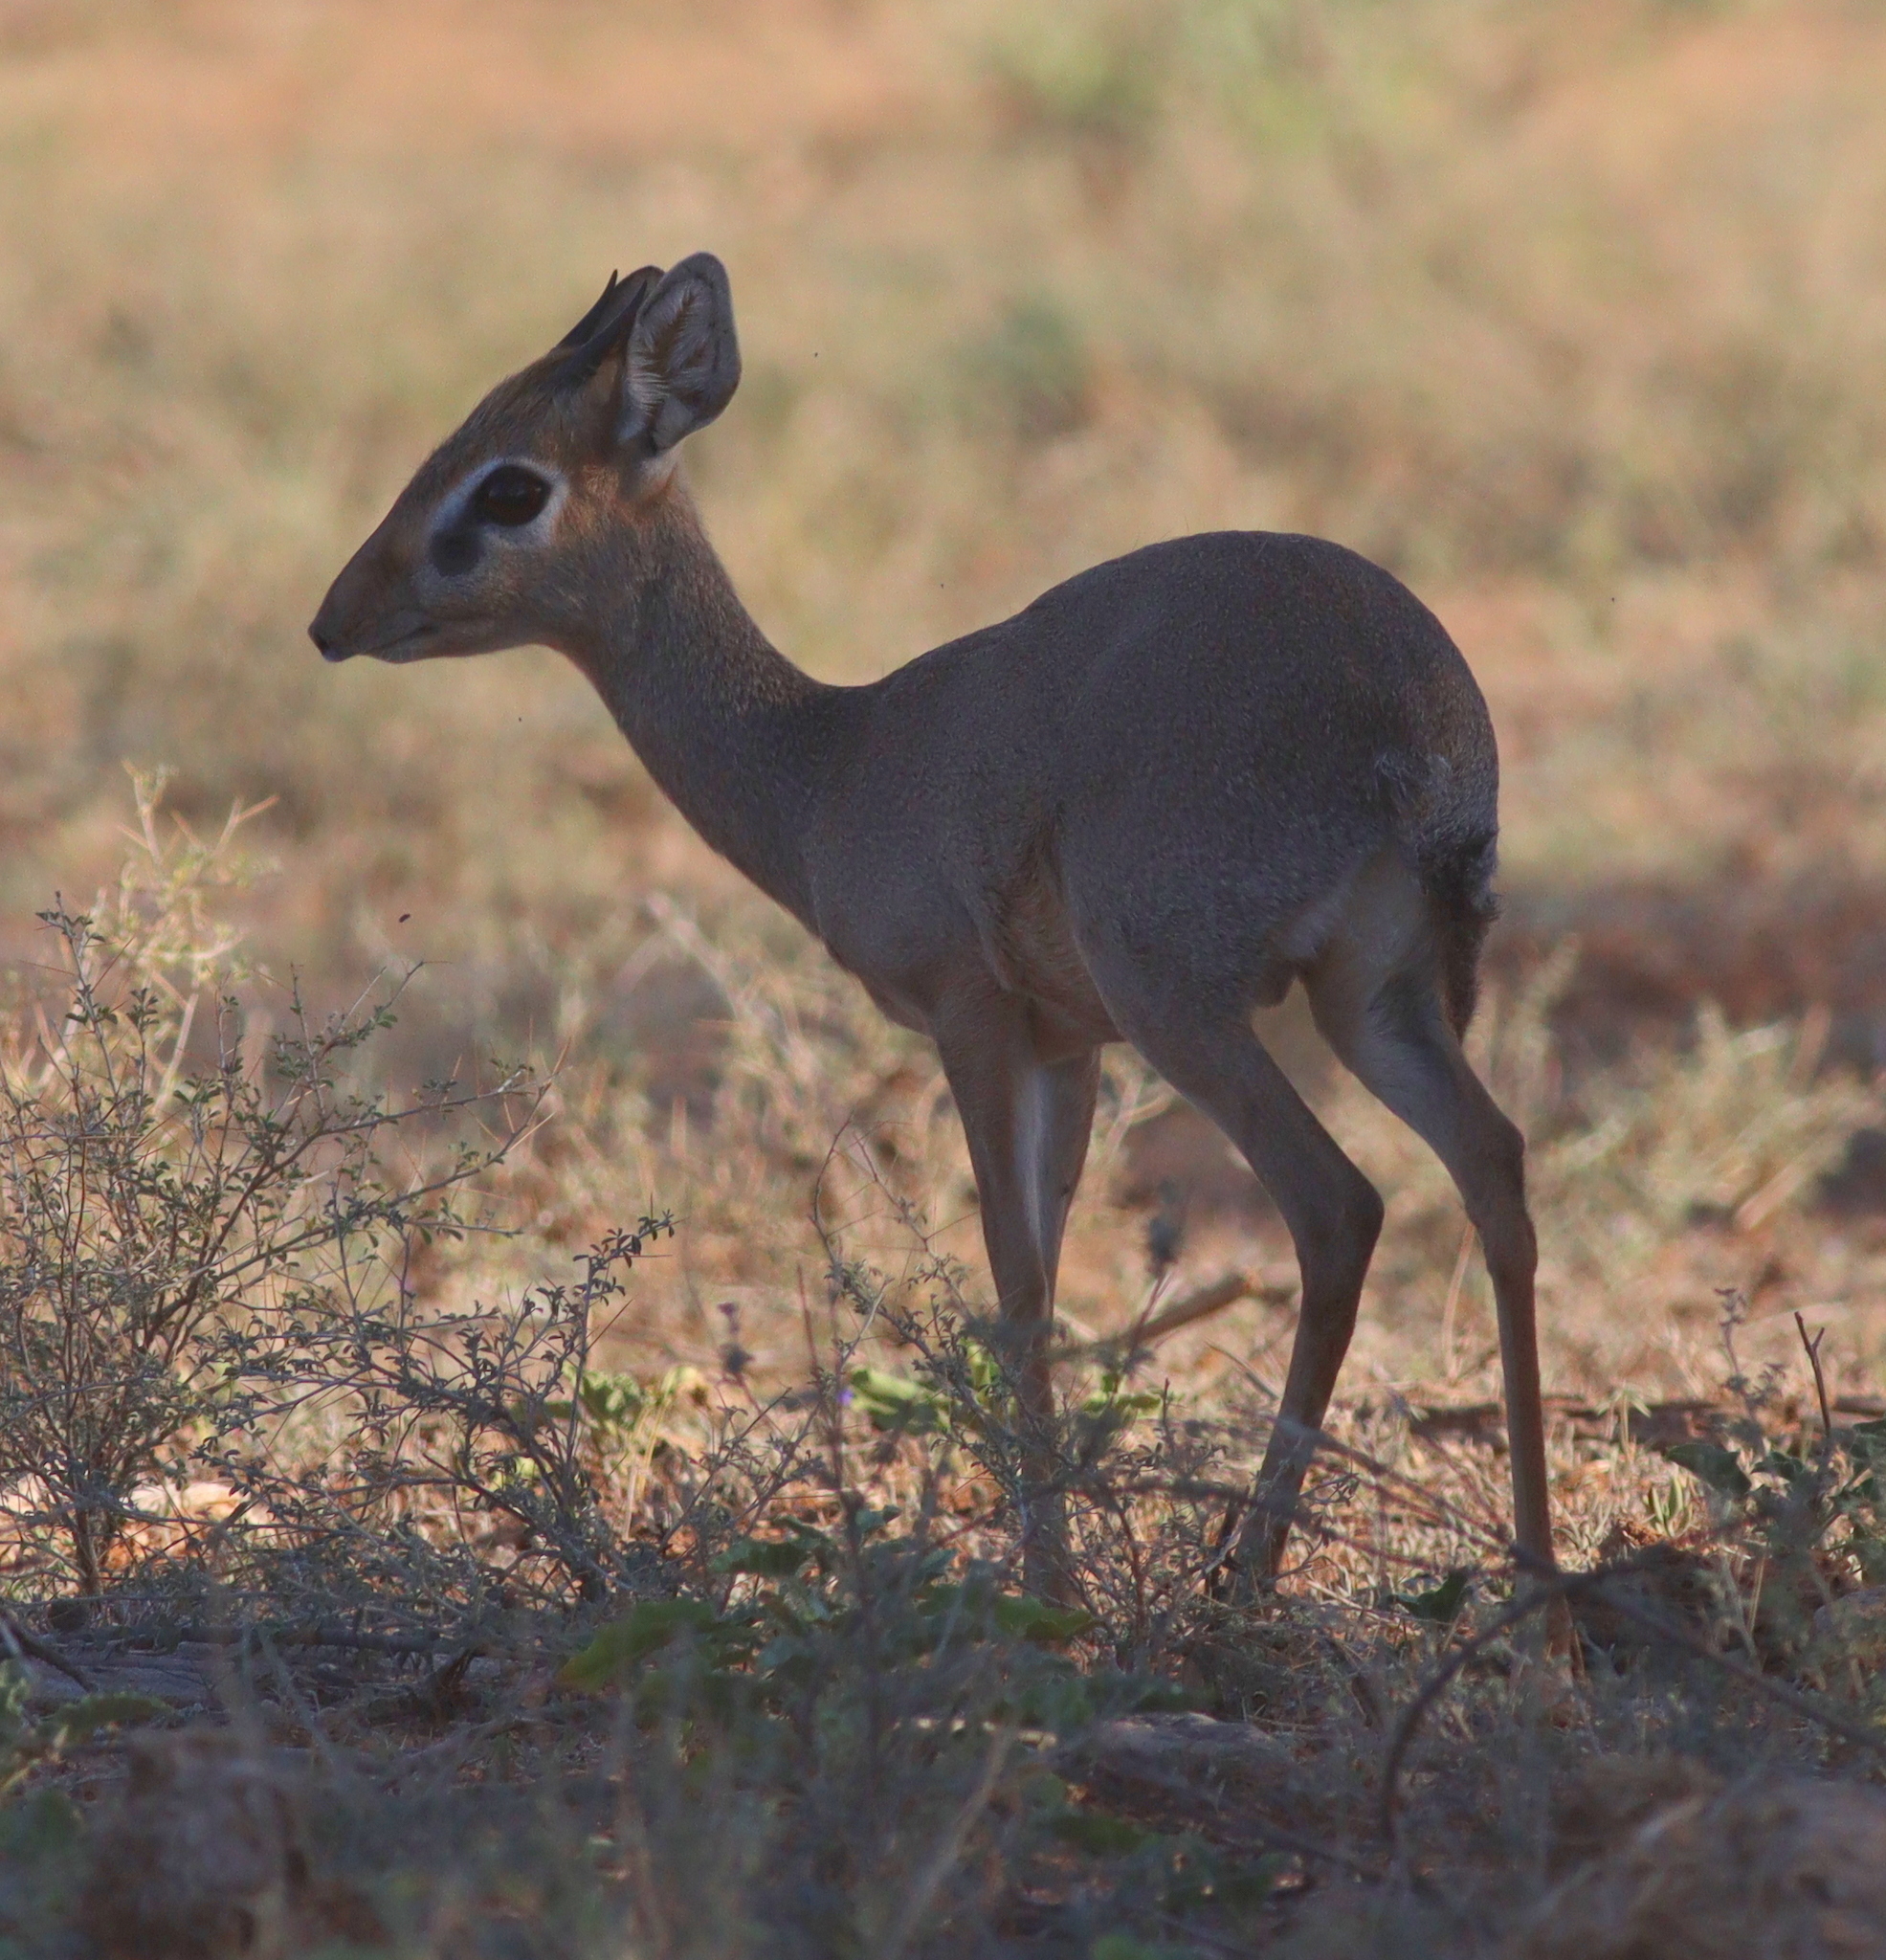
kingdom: Animalia
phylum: Chordata
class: Mammalia
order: Artiodactyla
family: Bovidae
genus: Madoqua
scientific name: Madoqua kirkii
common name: Kirk's dik-dik
